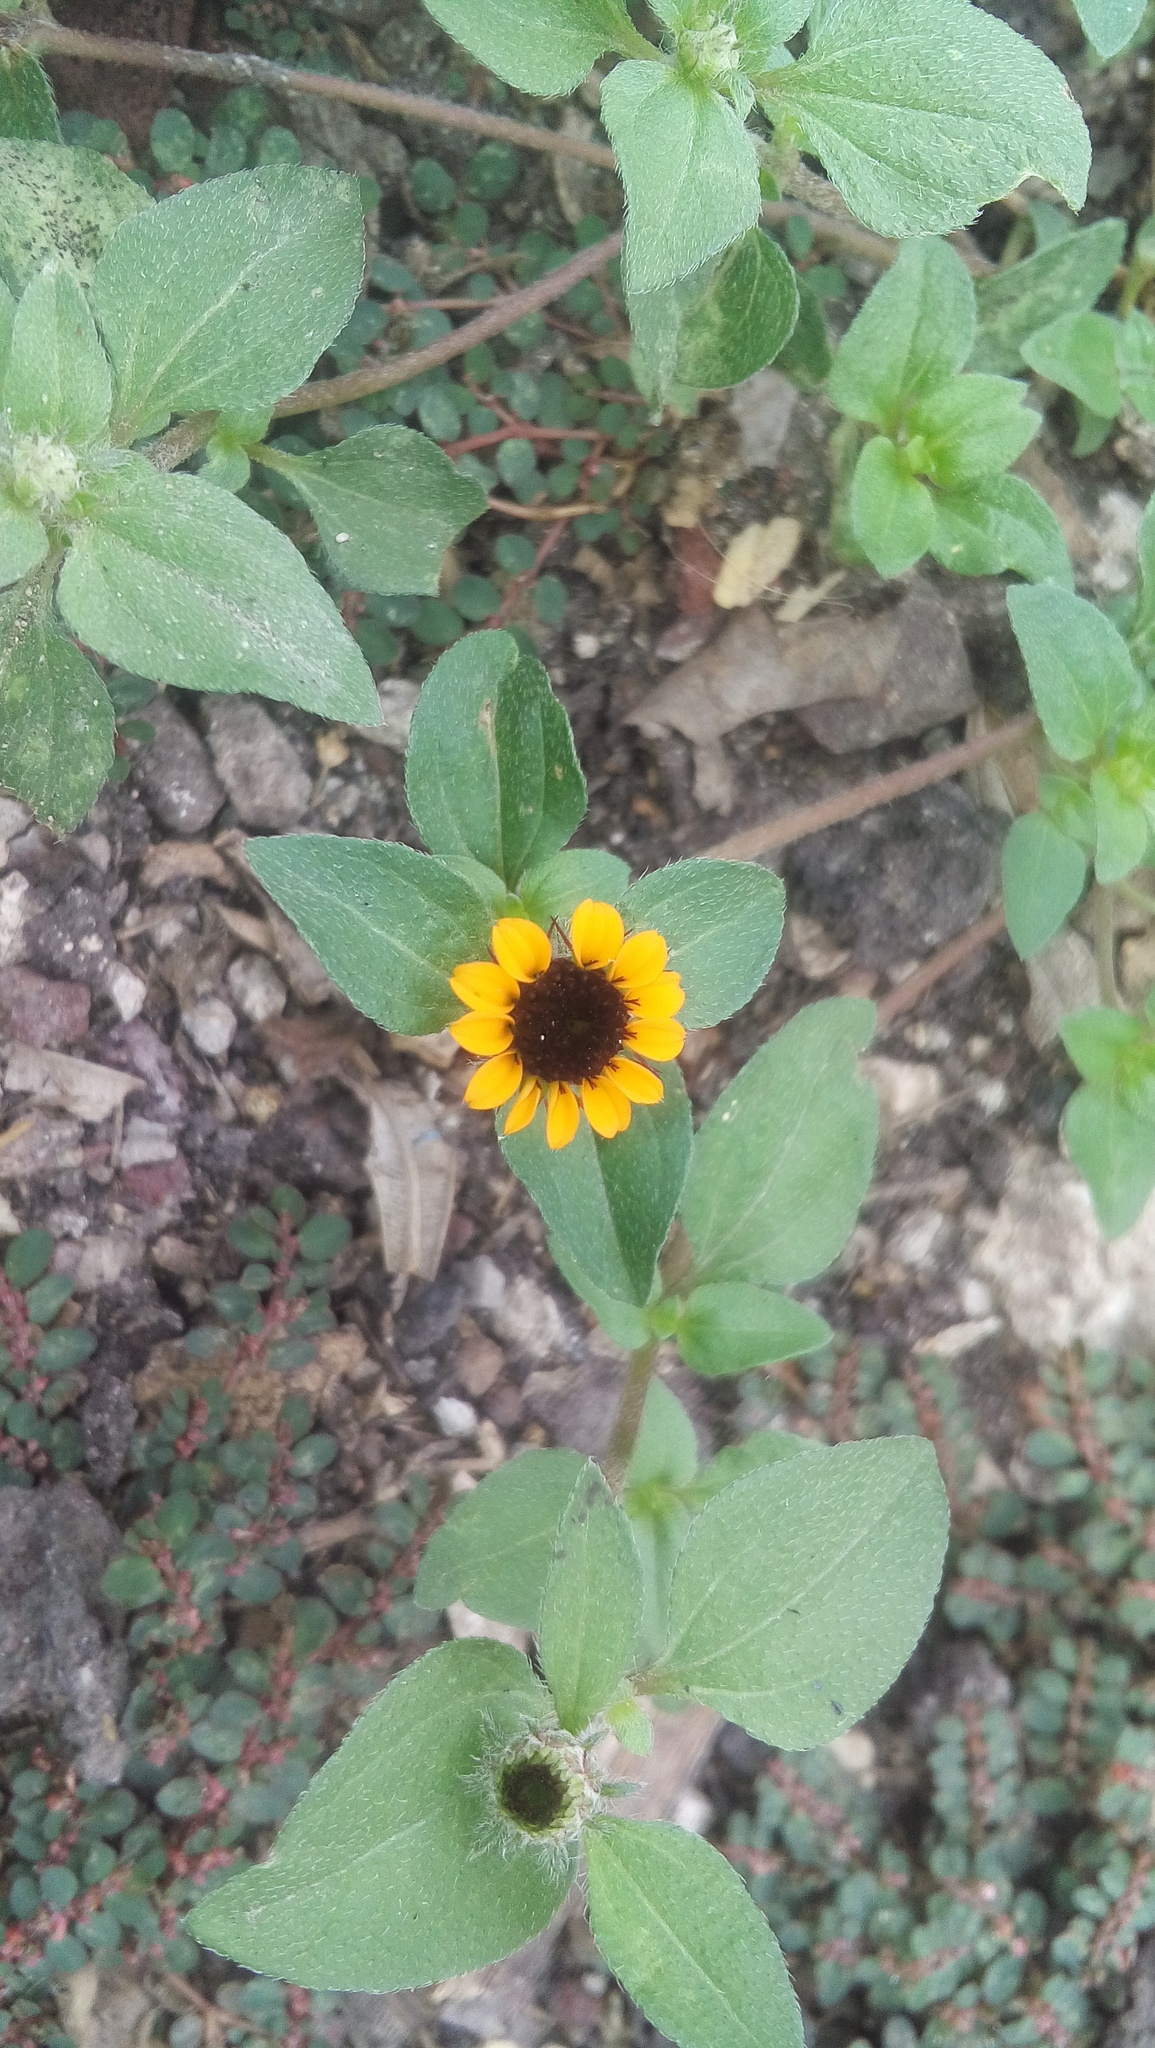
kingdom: Plantae
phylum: Tracheophyta
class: Magnoliopsida
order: Asterales
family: Asteraceae
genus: Sanvitalia
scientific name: Sanvitalia procumbens
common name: Mexican creeping zinnia
